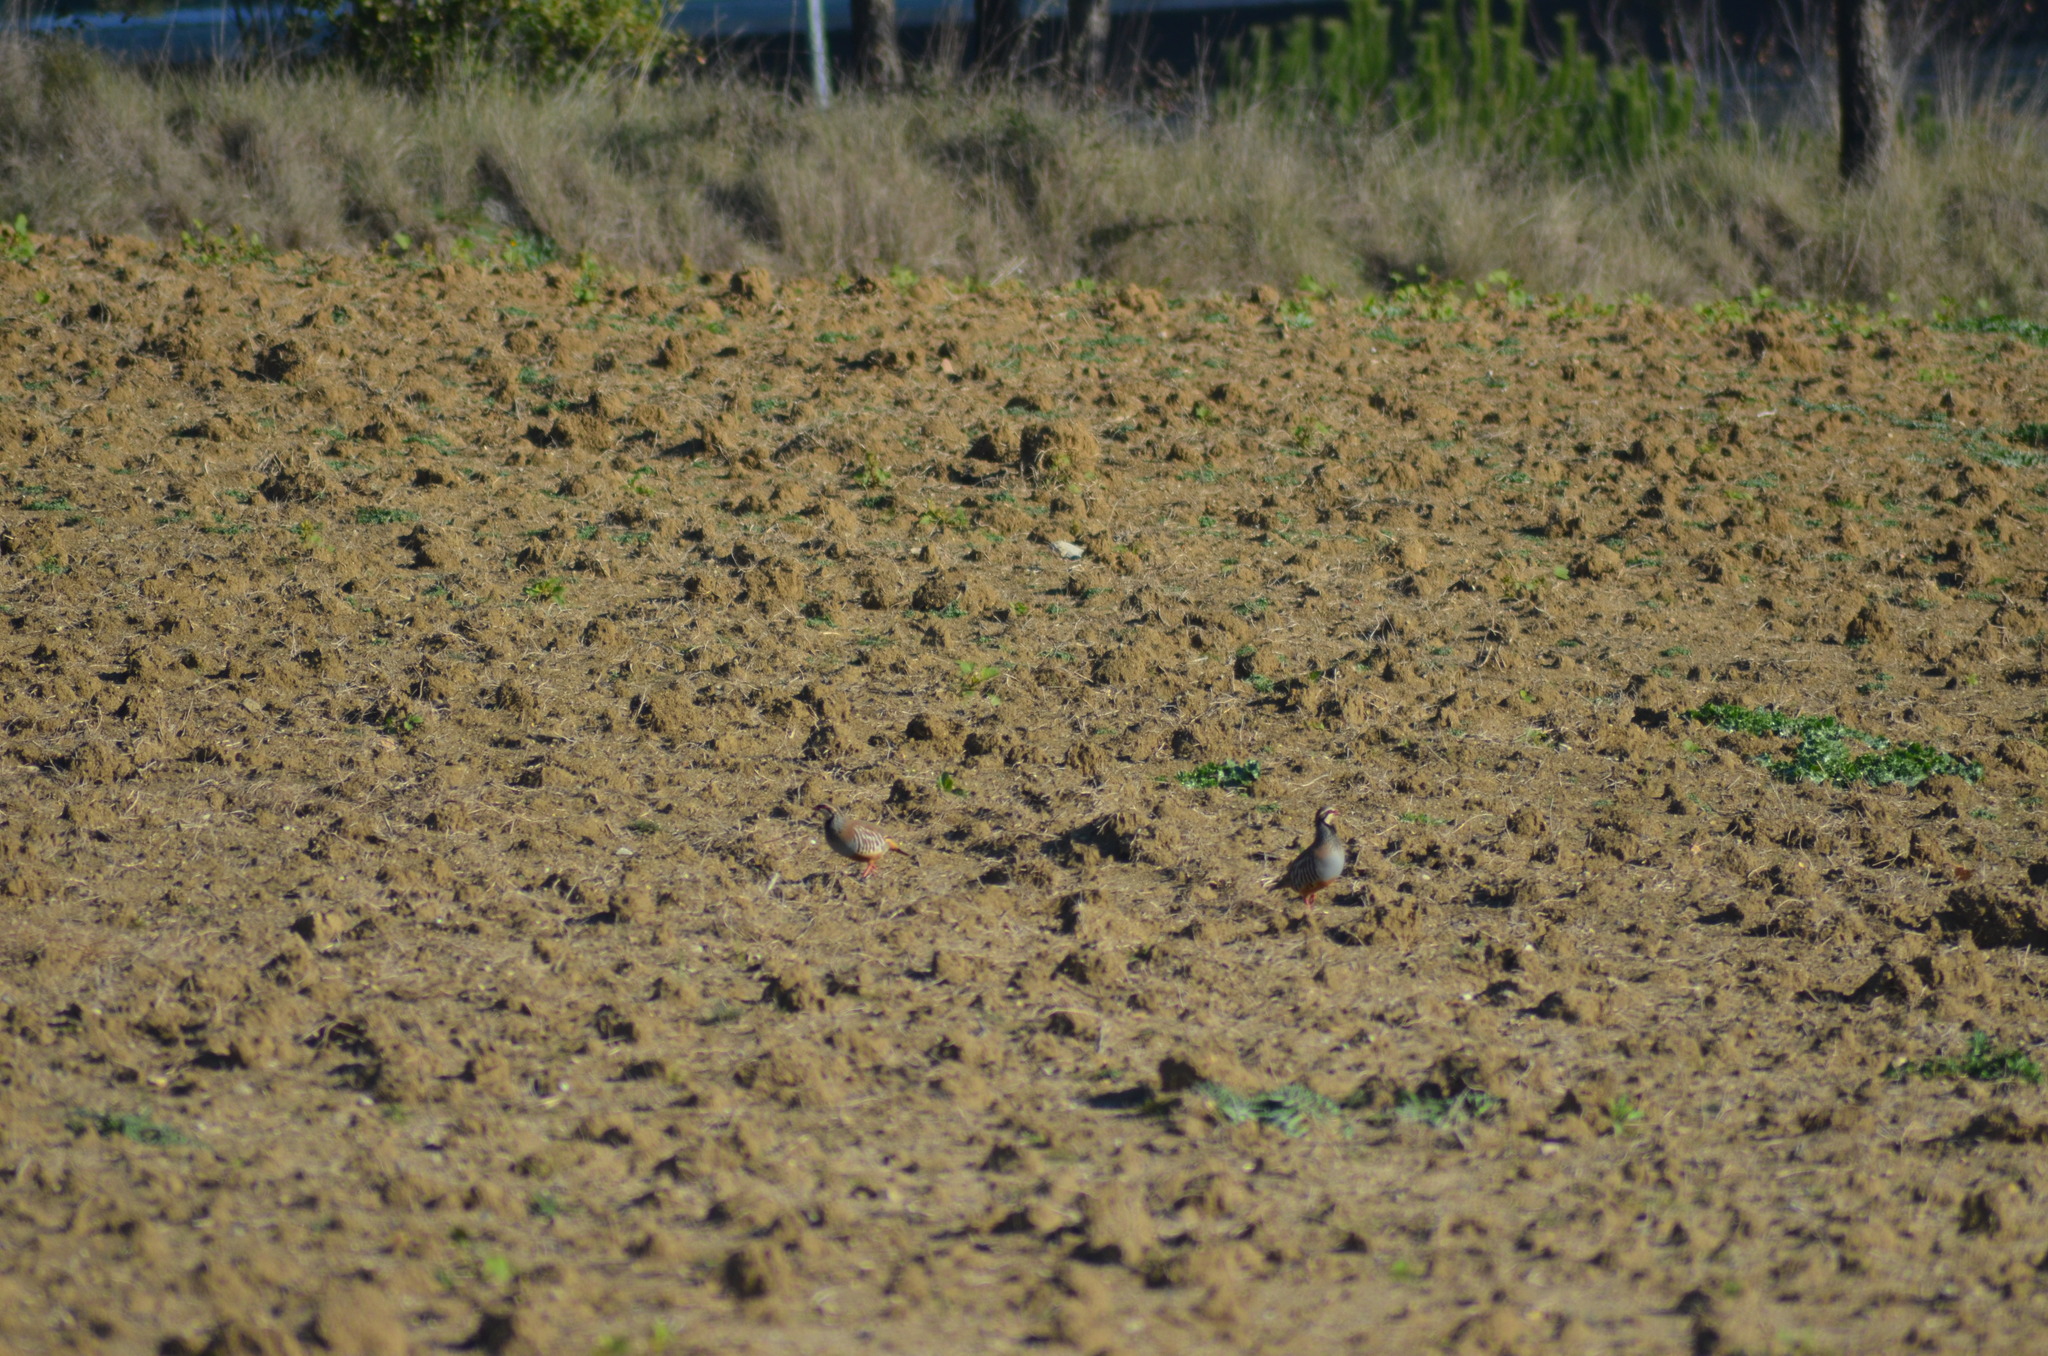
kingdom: Animalia
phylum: Chordata
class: Aves
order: Galliformes
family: Phasianidae
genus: Alectoris
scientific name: Alectoris rufa
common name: Red-legged partridge
